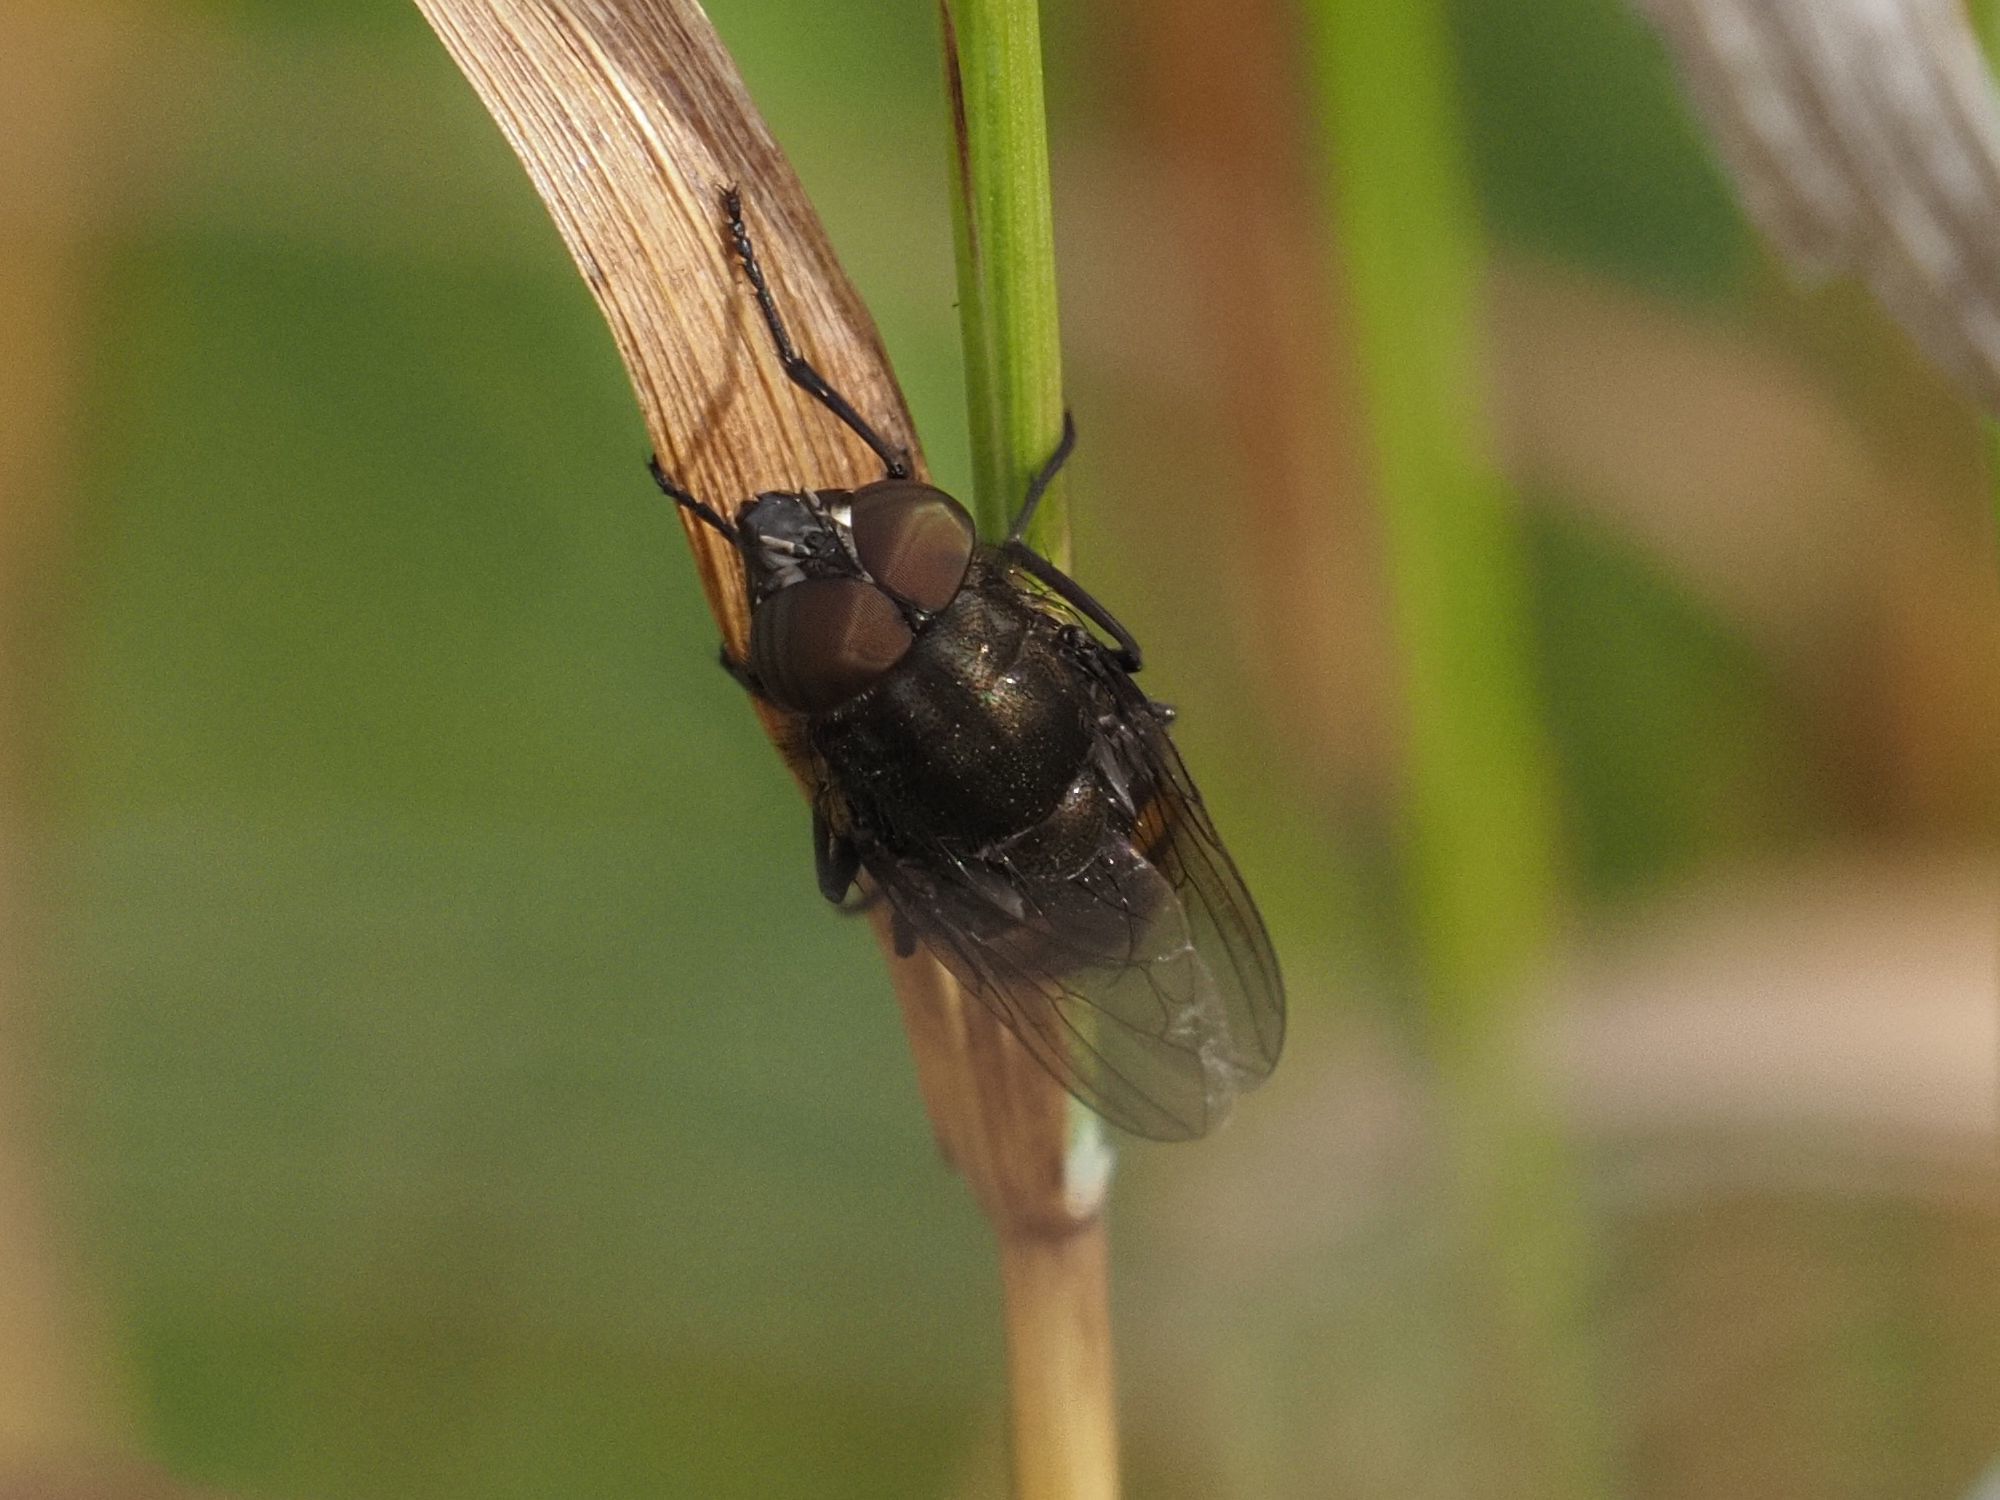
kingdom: Animalia
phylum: Arthropoda
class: Insecta
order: Diptera
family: Calliphoridae
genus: Stomorhina
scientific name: Stomorhina lunata
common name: Locust blowfly
